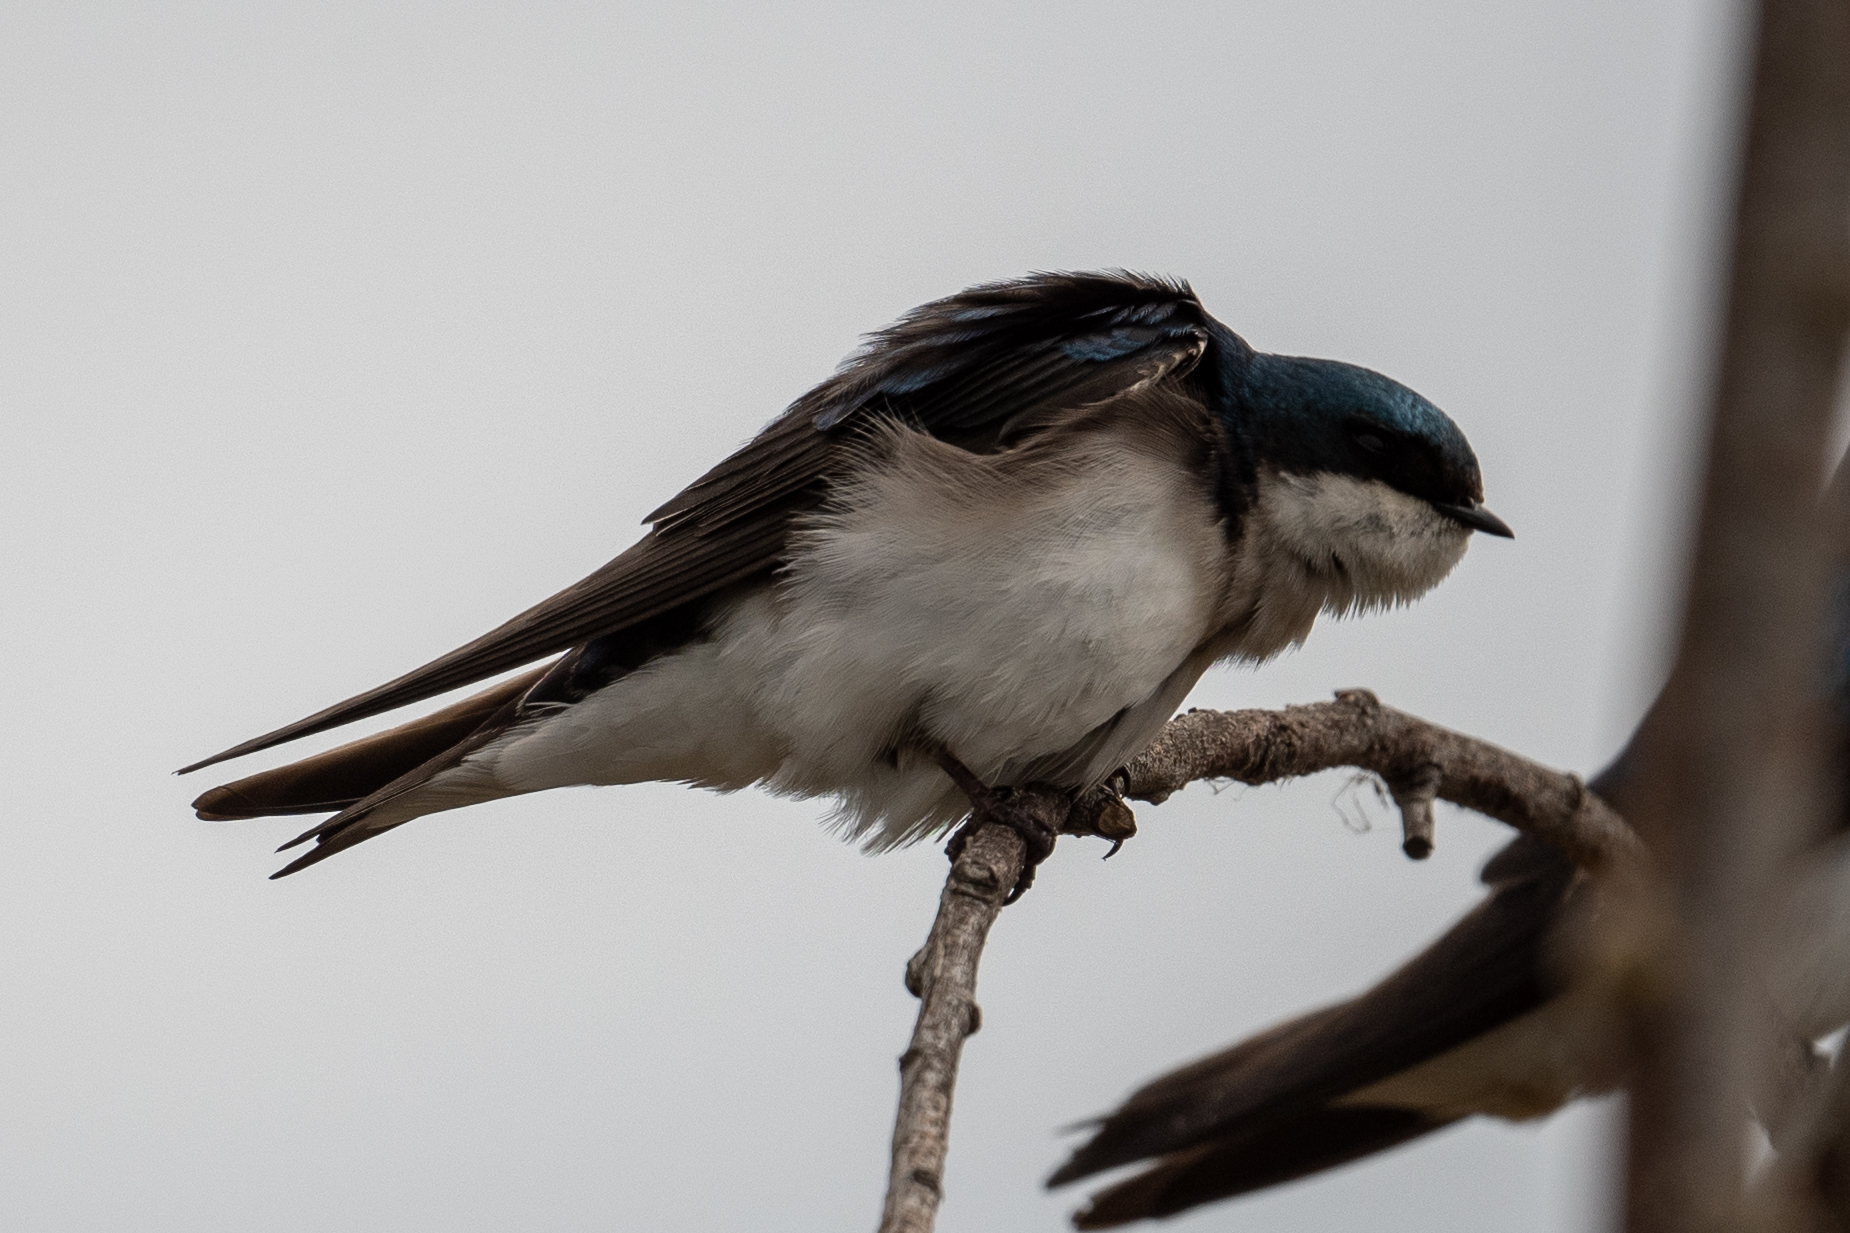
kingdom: Animalia
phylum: Chordata
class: Aves
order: Passeriformes
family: Hirundinidae
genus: Tachycineta
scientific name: Tachycineta bicolor
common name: Tree swallow
